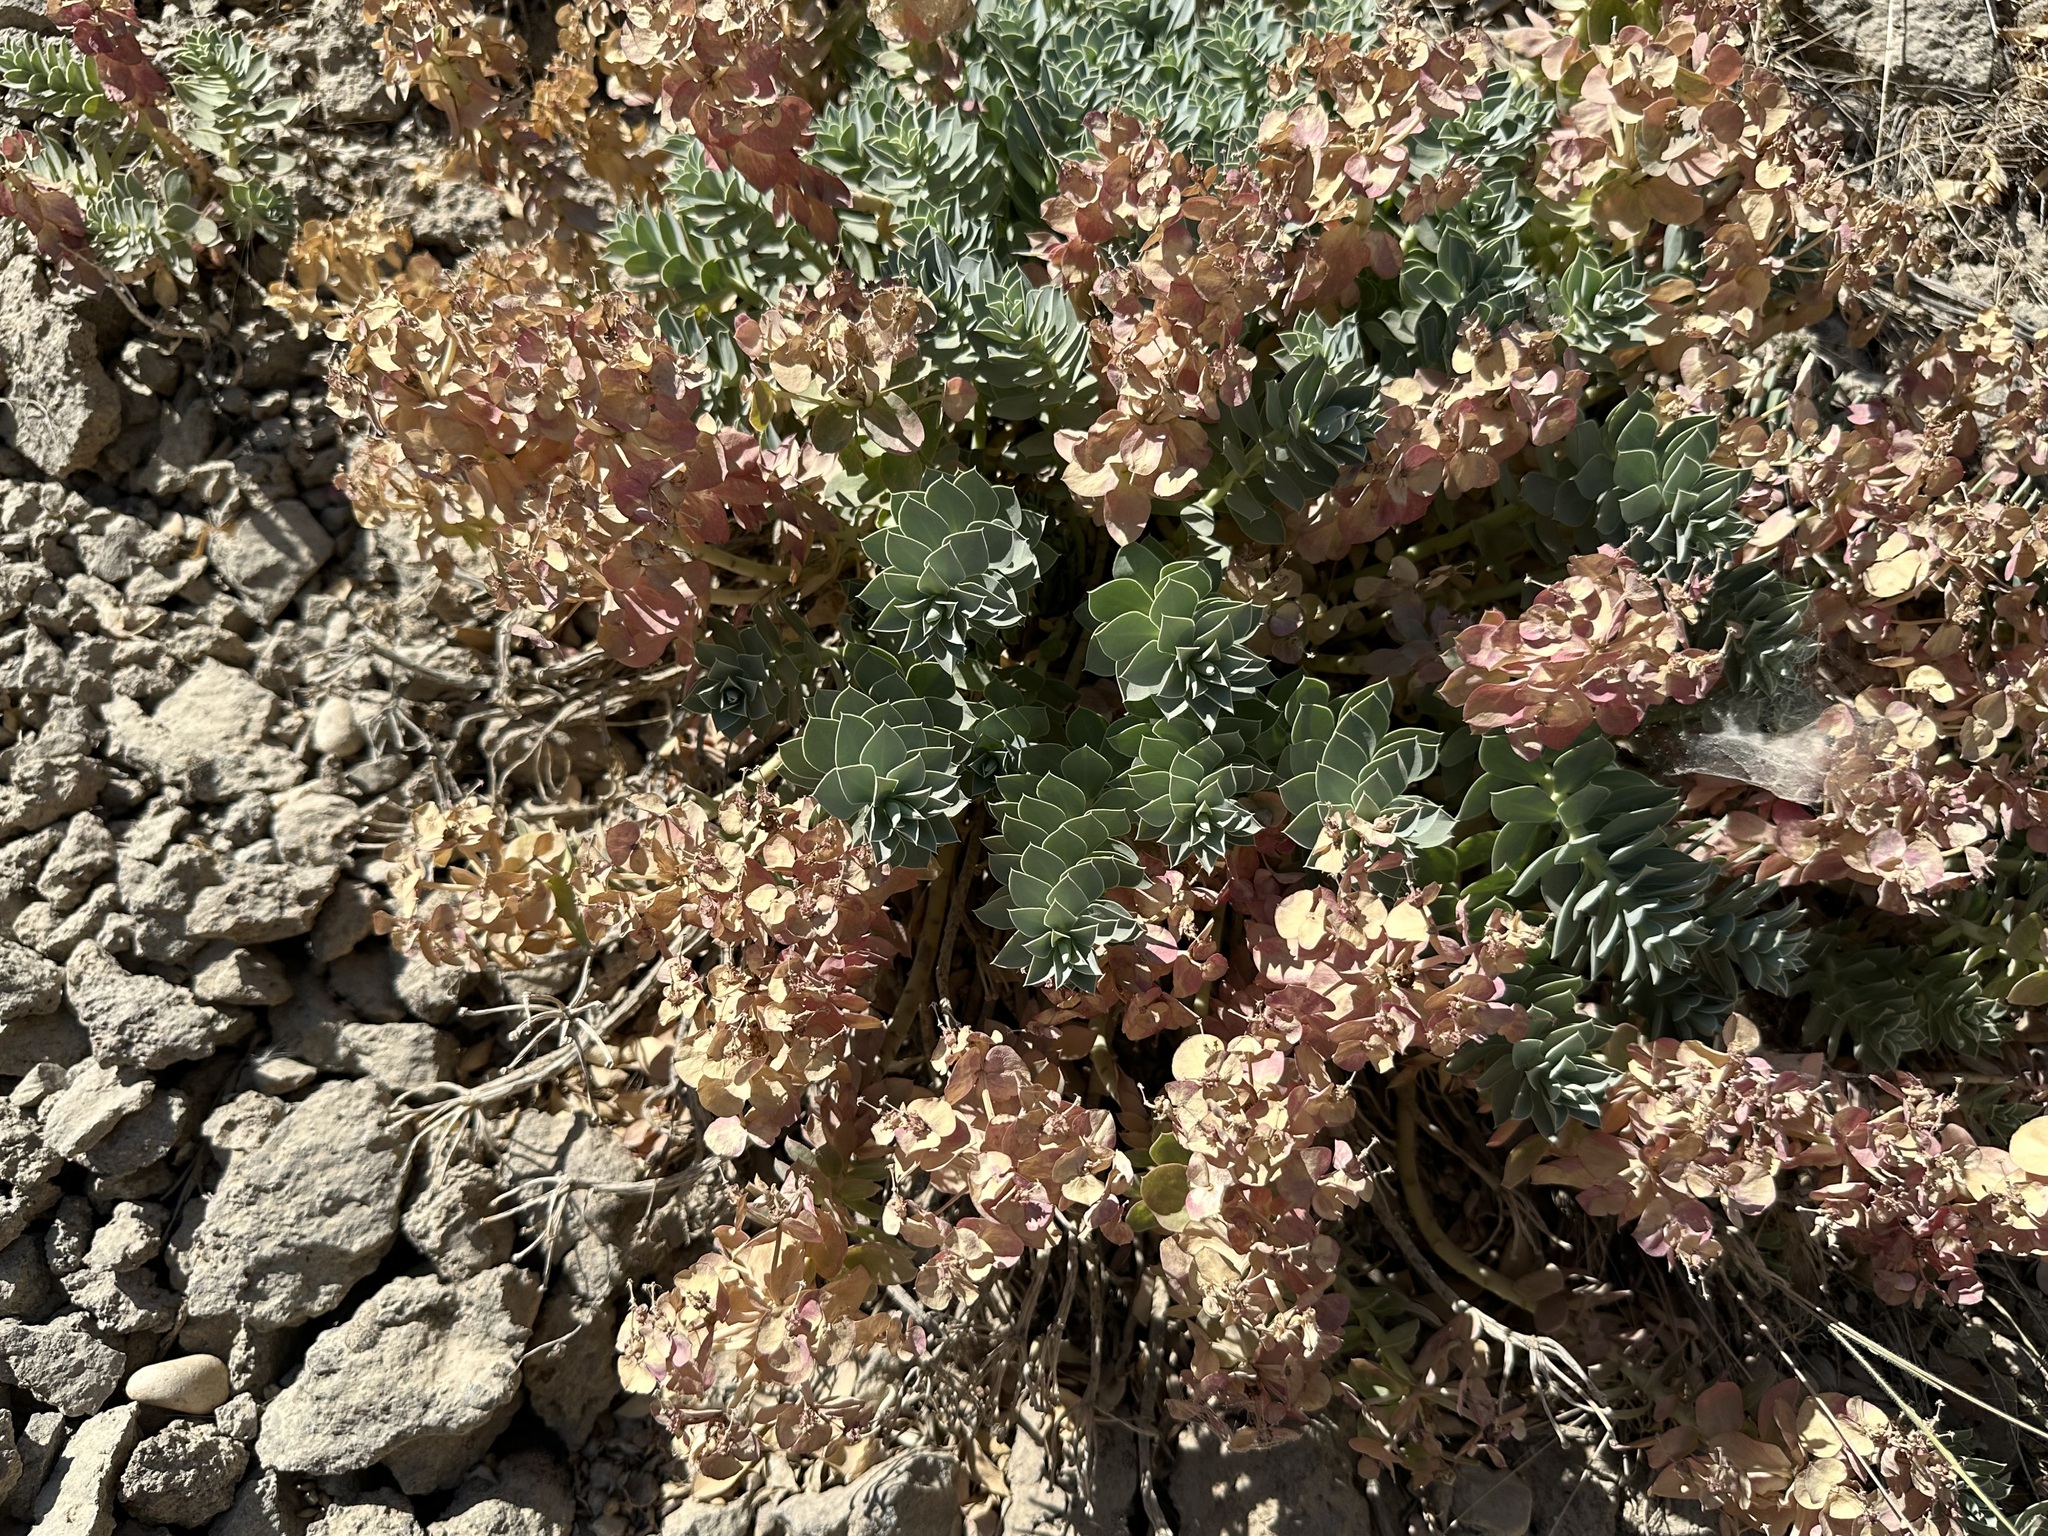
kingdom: Plantae
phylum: Tracheophyta
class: Magnoliopsida
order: Malpighiales
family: Euphorbiaceae
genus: Euphorbia
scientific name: Euphorbia myrsinites
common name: Myrtle spurge
